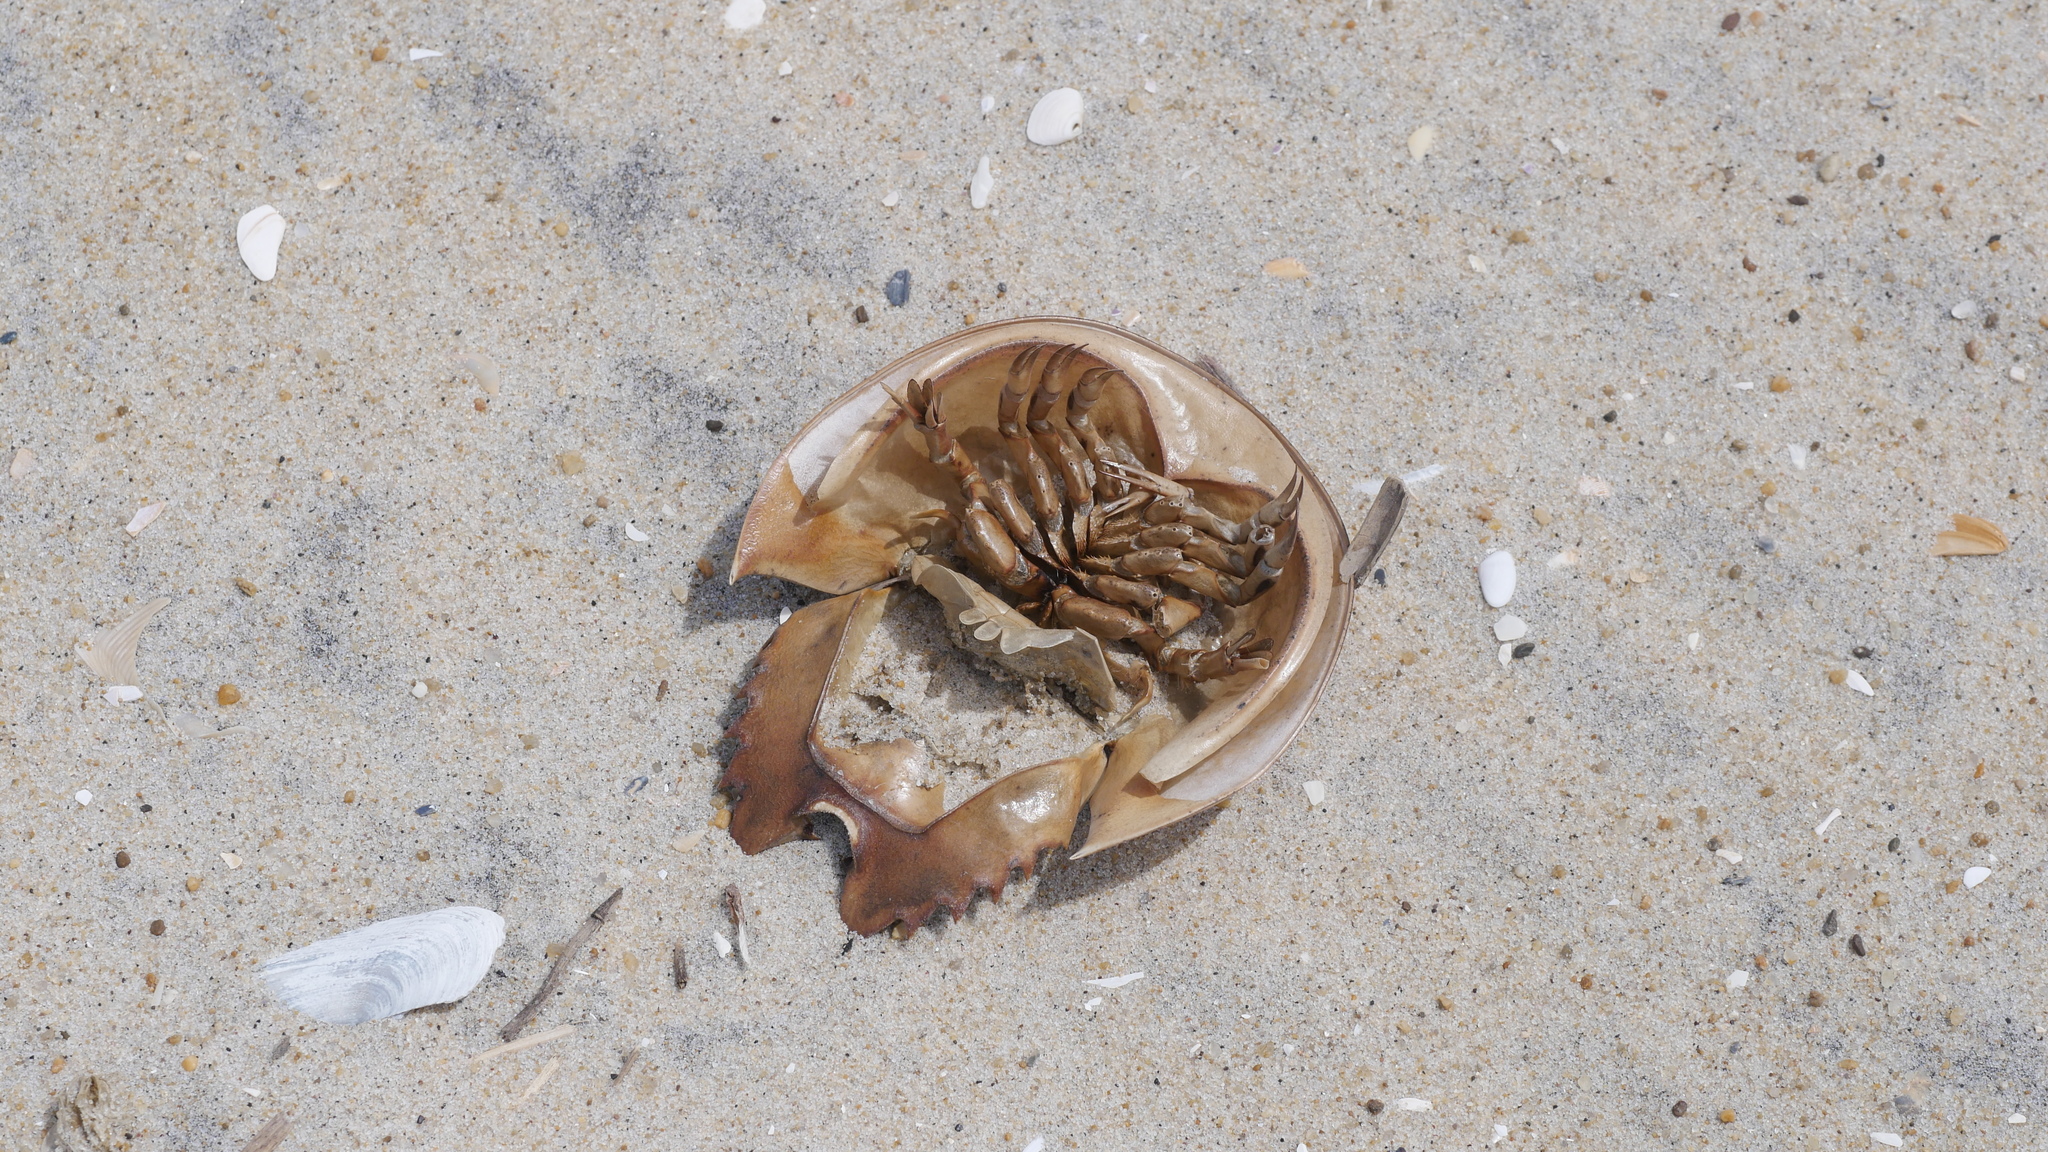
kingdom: Animalia
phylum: Arthropoda
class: Merostomata
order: Xiphosurida
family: Limulidae
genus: Limulus
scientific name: Limulus polyphemus
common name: Horseshoe crab
